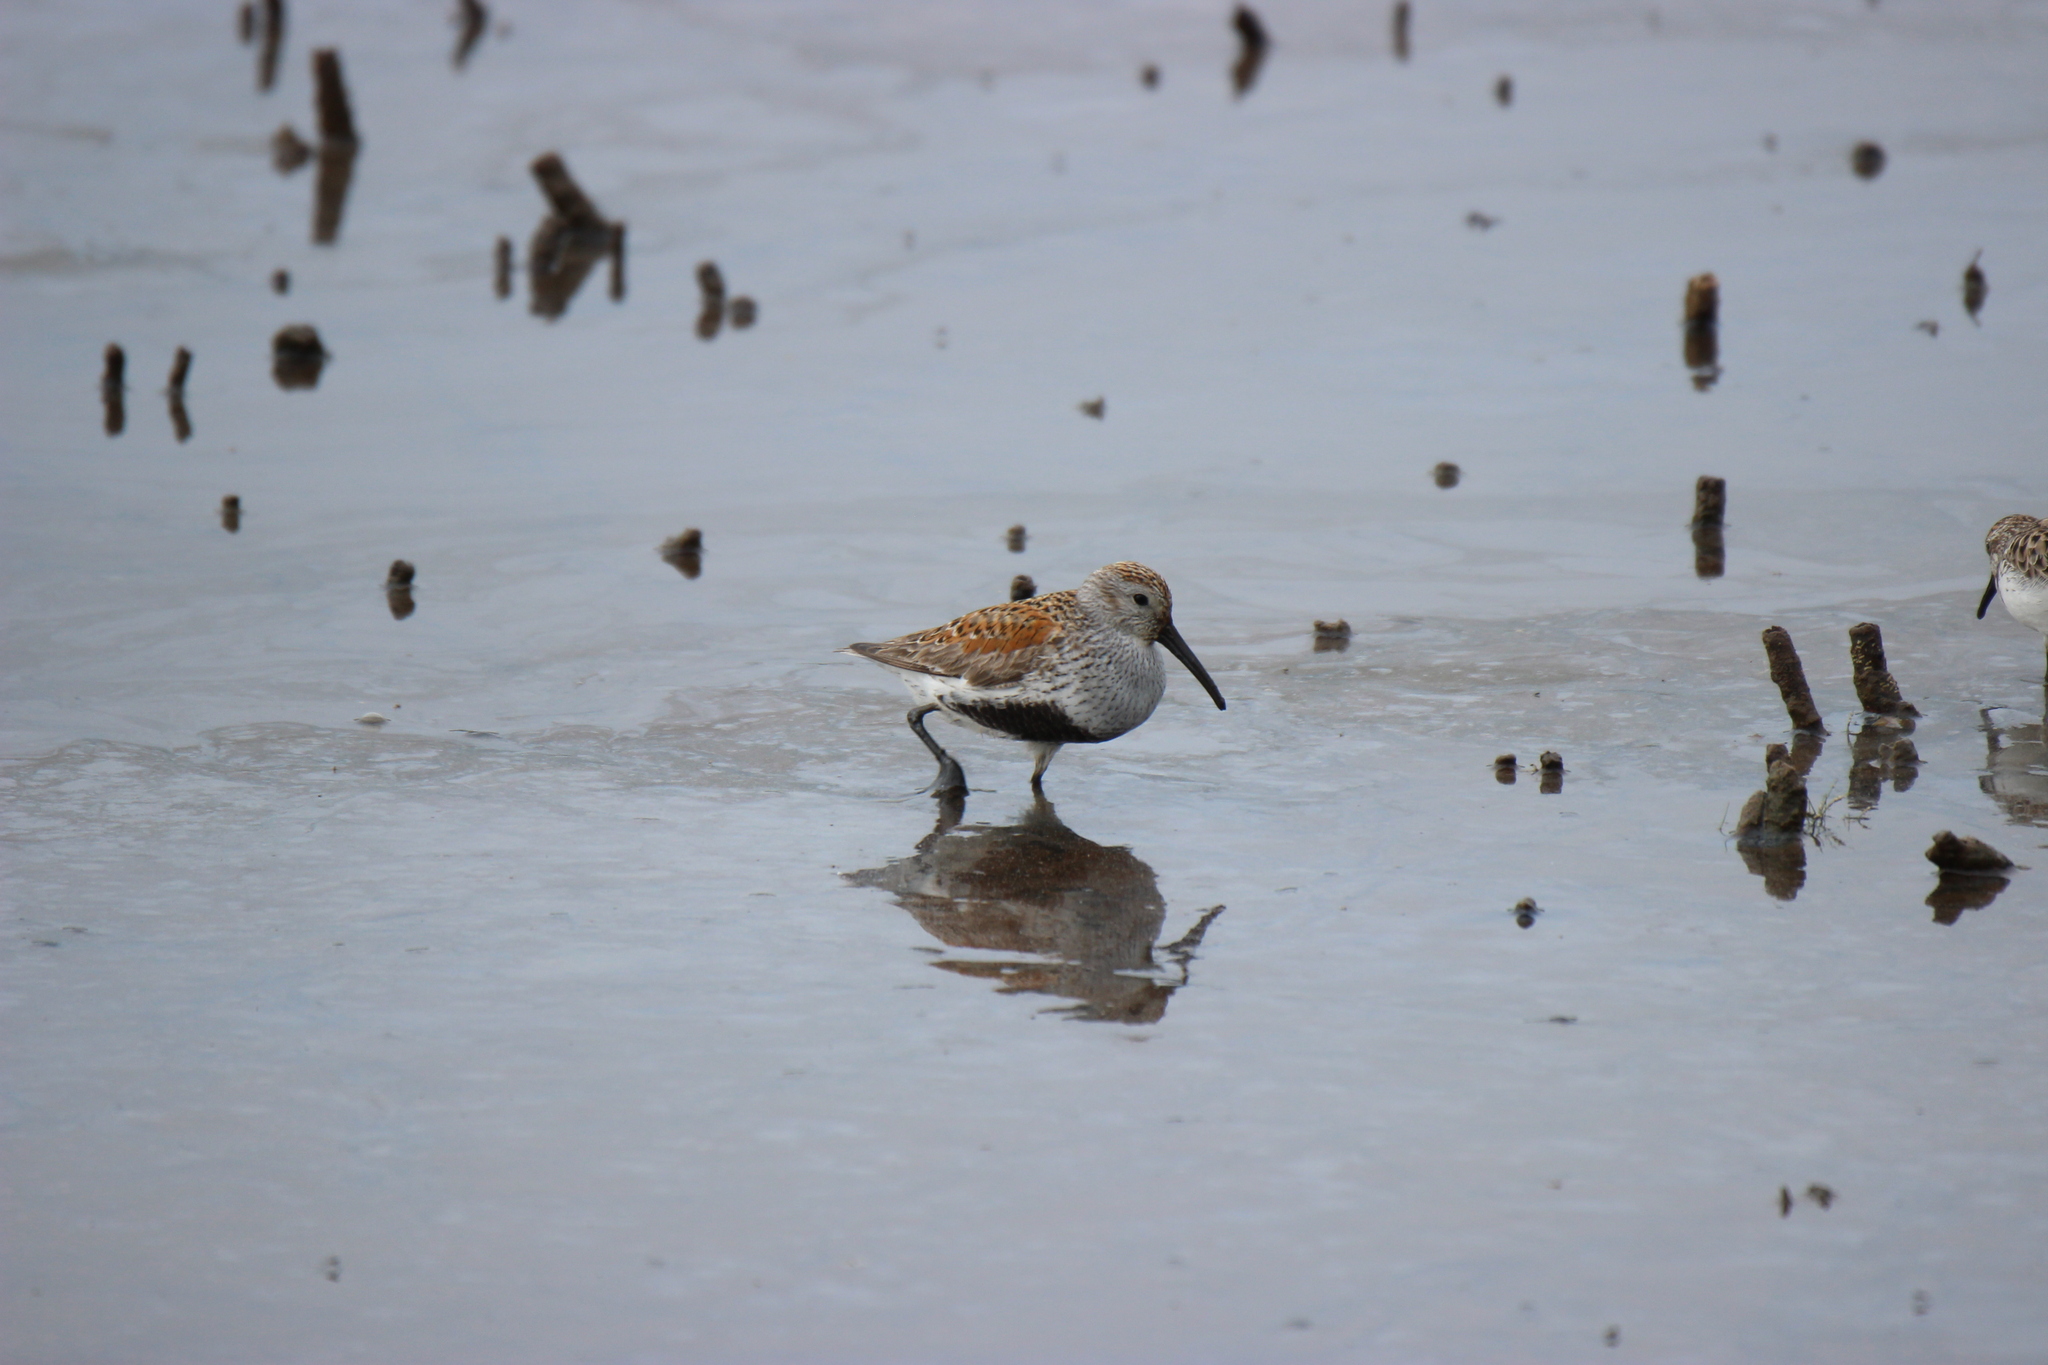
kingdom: Animalia
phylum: Chordata
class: Aves
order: Charadriiformes
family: Scolopacidae
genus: Calidris
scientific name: Calidris alpina
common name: Dunlin
